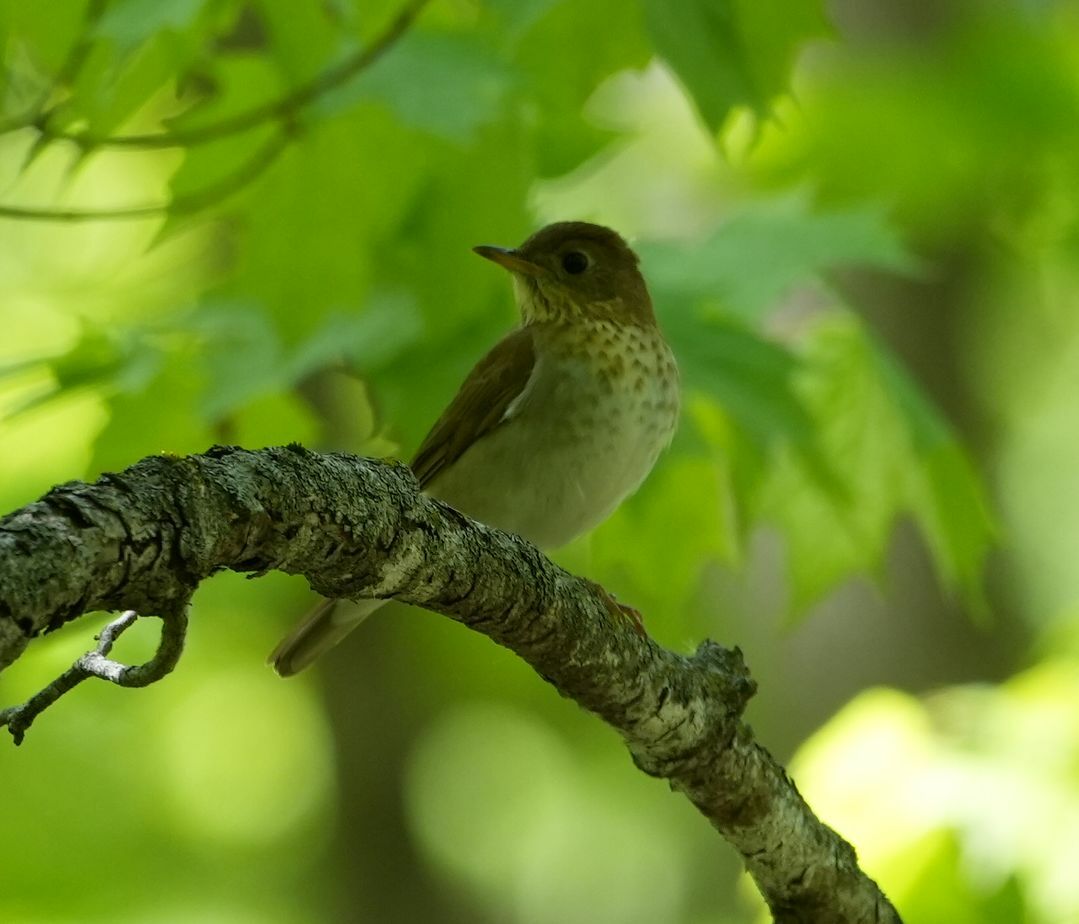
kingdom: Animalia
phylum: Chordata
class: Aves
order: Passeriformes
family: Turdidae
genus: Catharus
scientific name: Catharus fuscescens
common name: Veery
